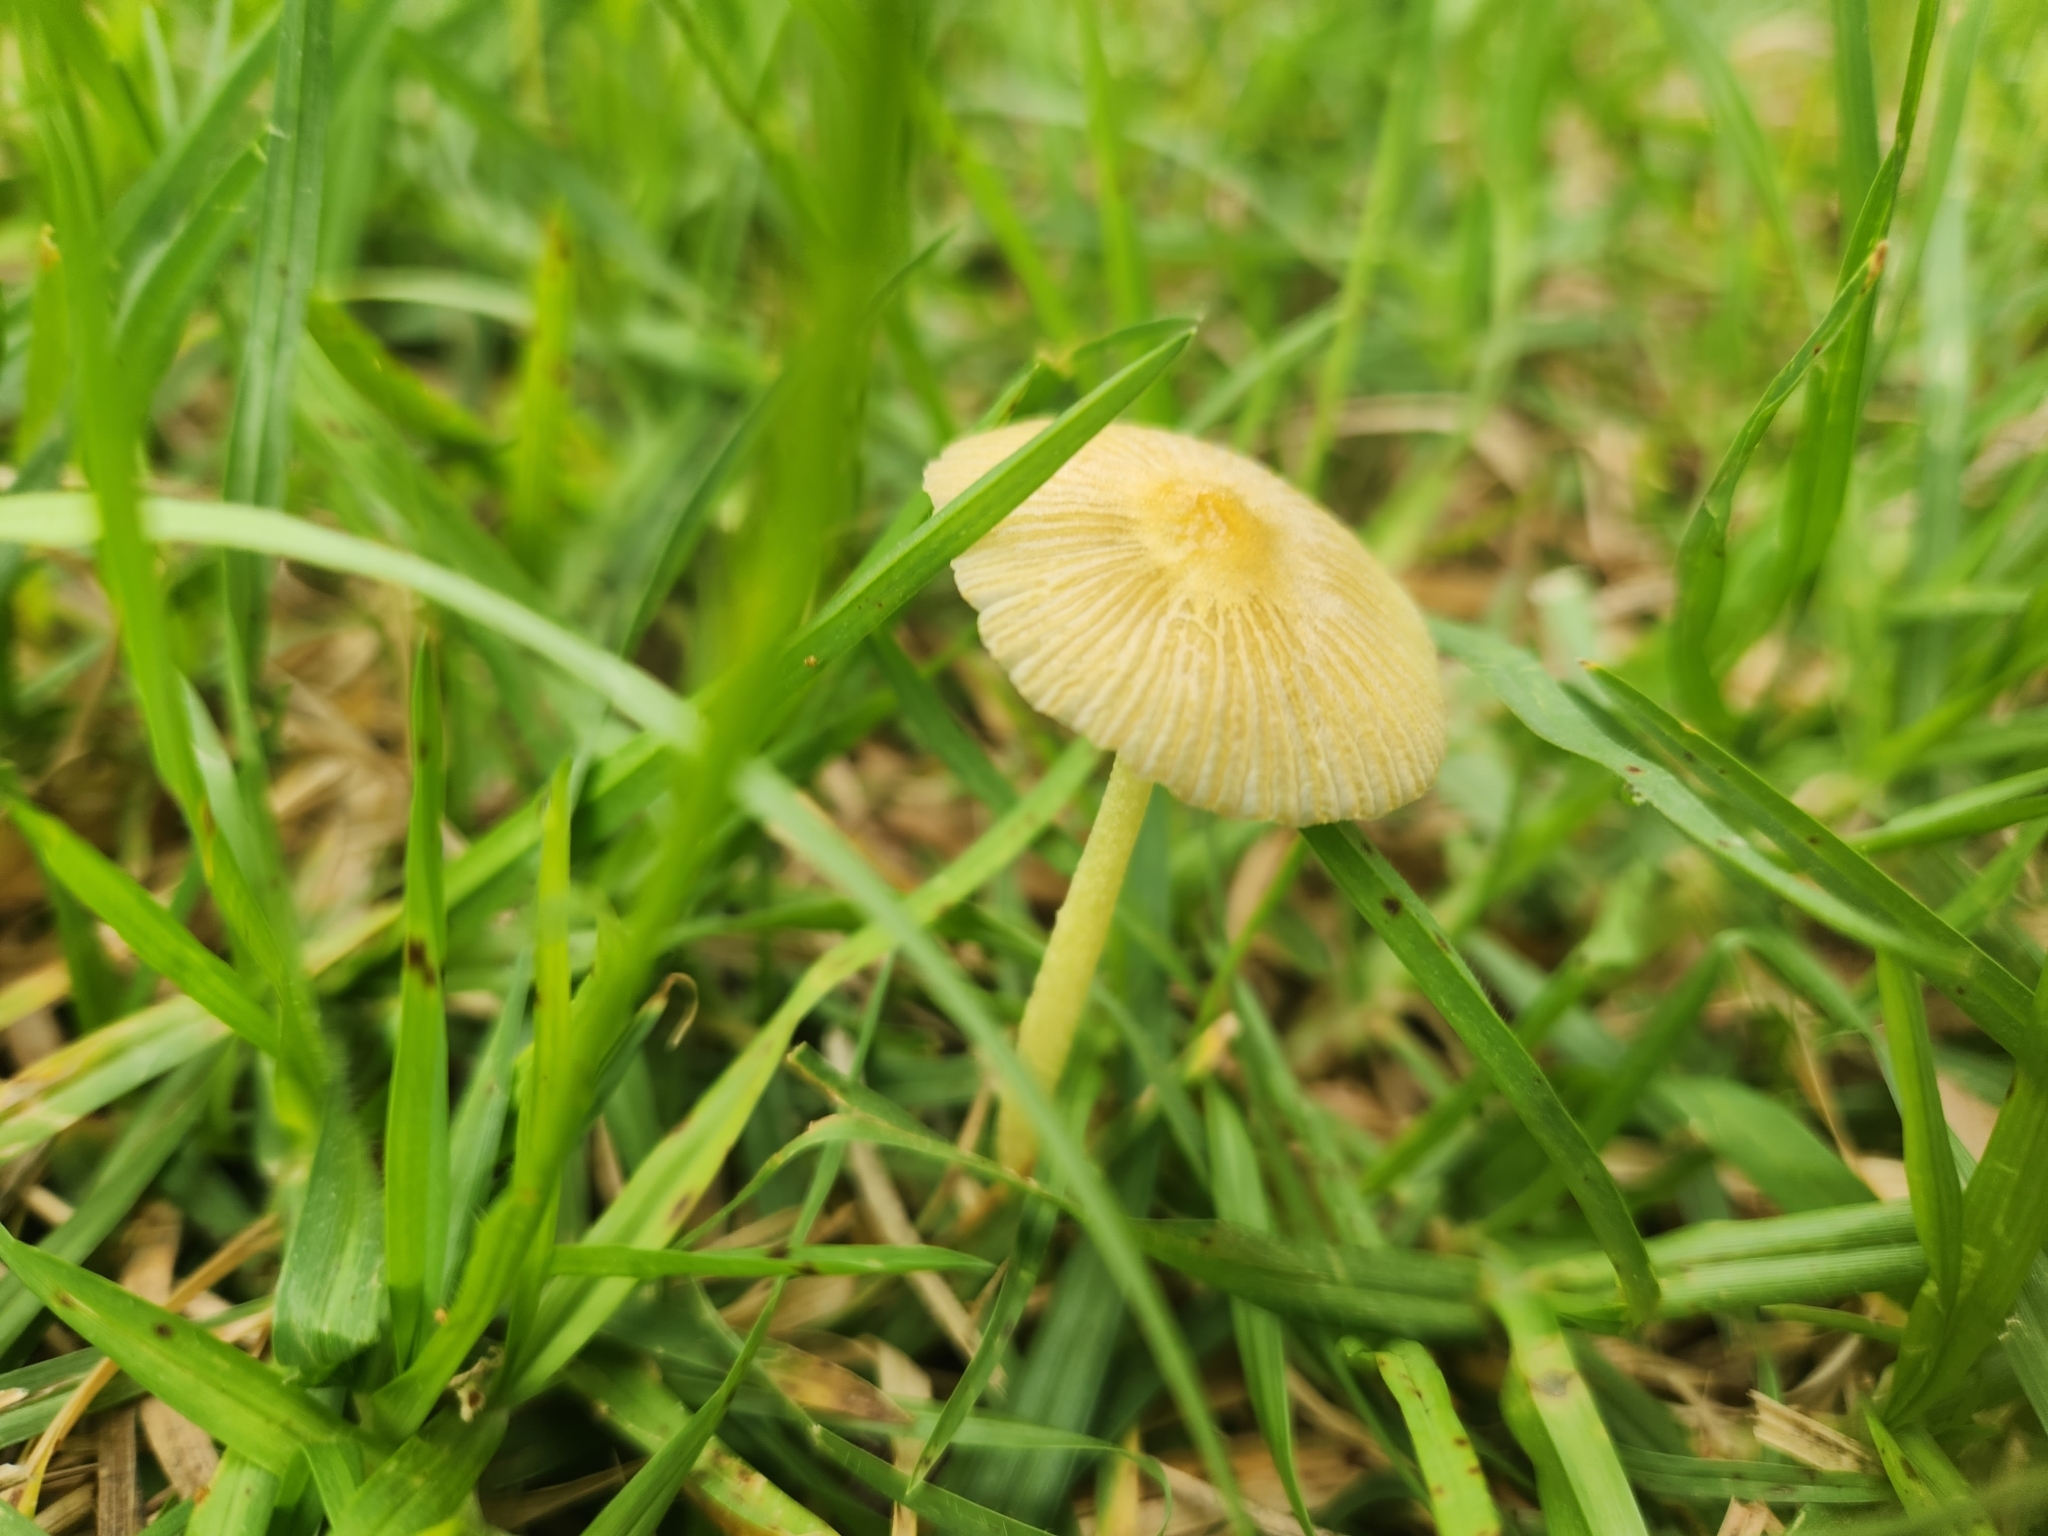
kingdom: Fungi
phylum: Basidiomycota
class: Agaricomycetes
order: Agaricales
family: Bolbitiaceae
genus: Bolbitius
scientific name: Bolbitius titubans
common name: Yellow fieldcap
